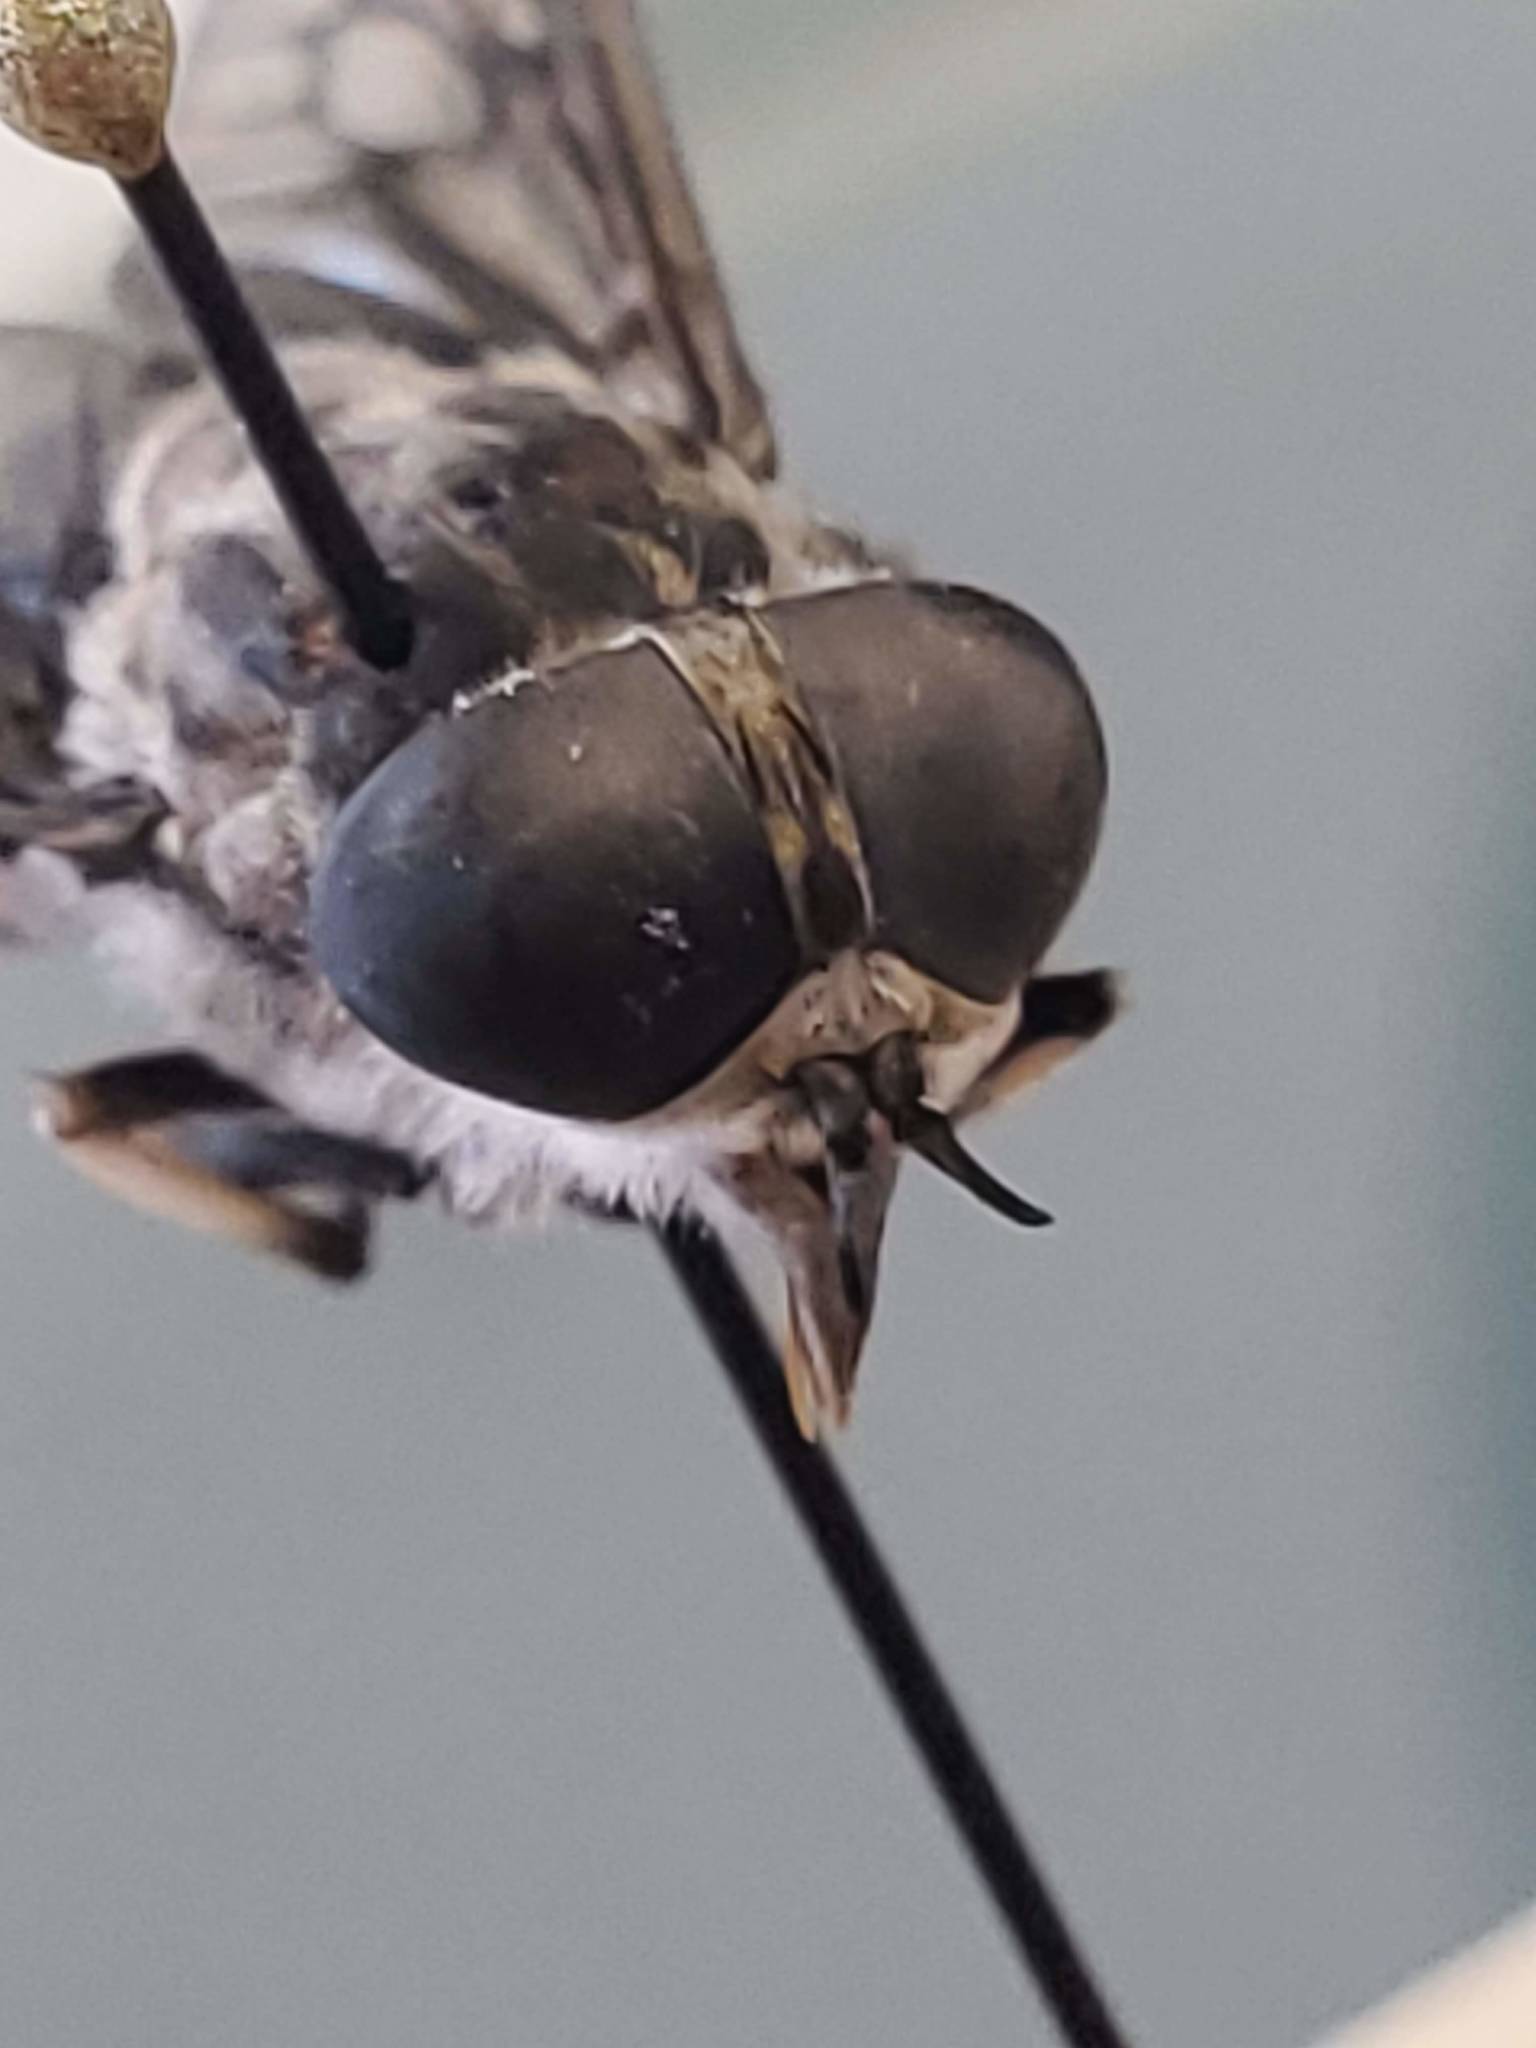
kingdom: Animalia
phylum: Arthropoda
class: Insecta
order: Diptera
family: Tabanidae
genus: Tabanus
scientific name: Tabanus trimaculatus
